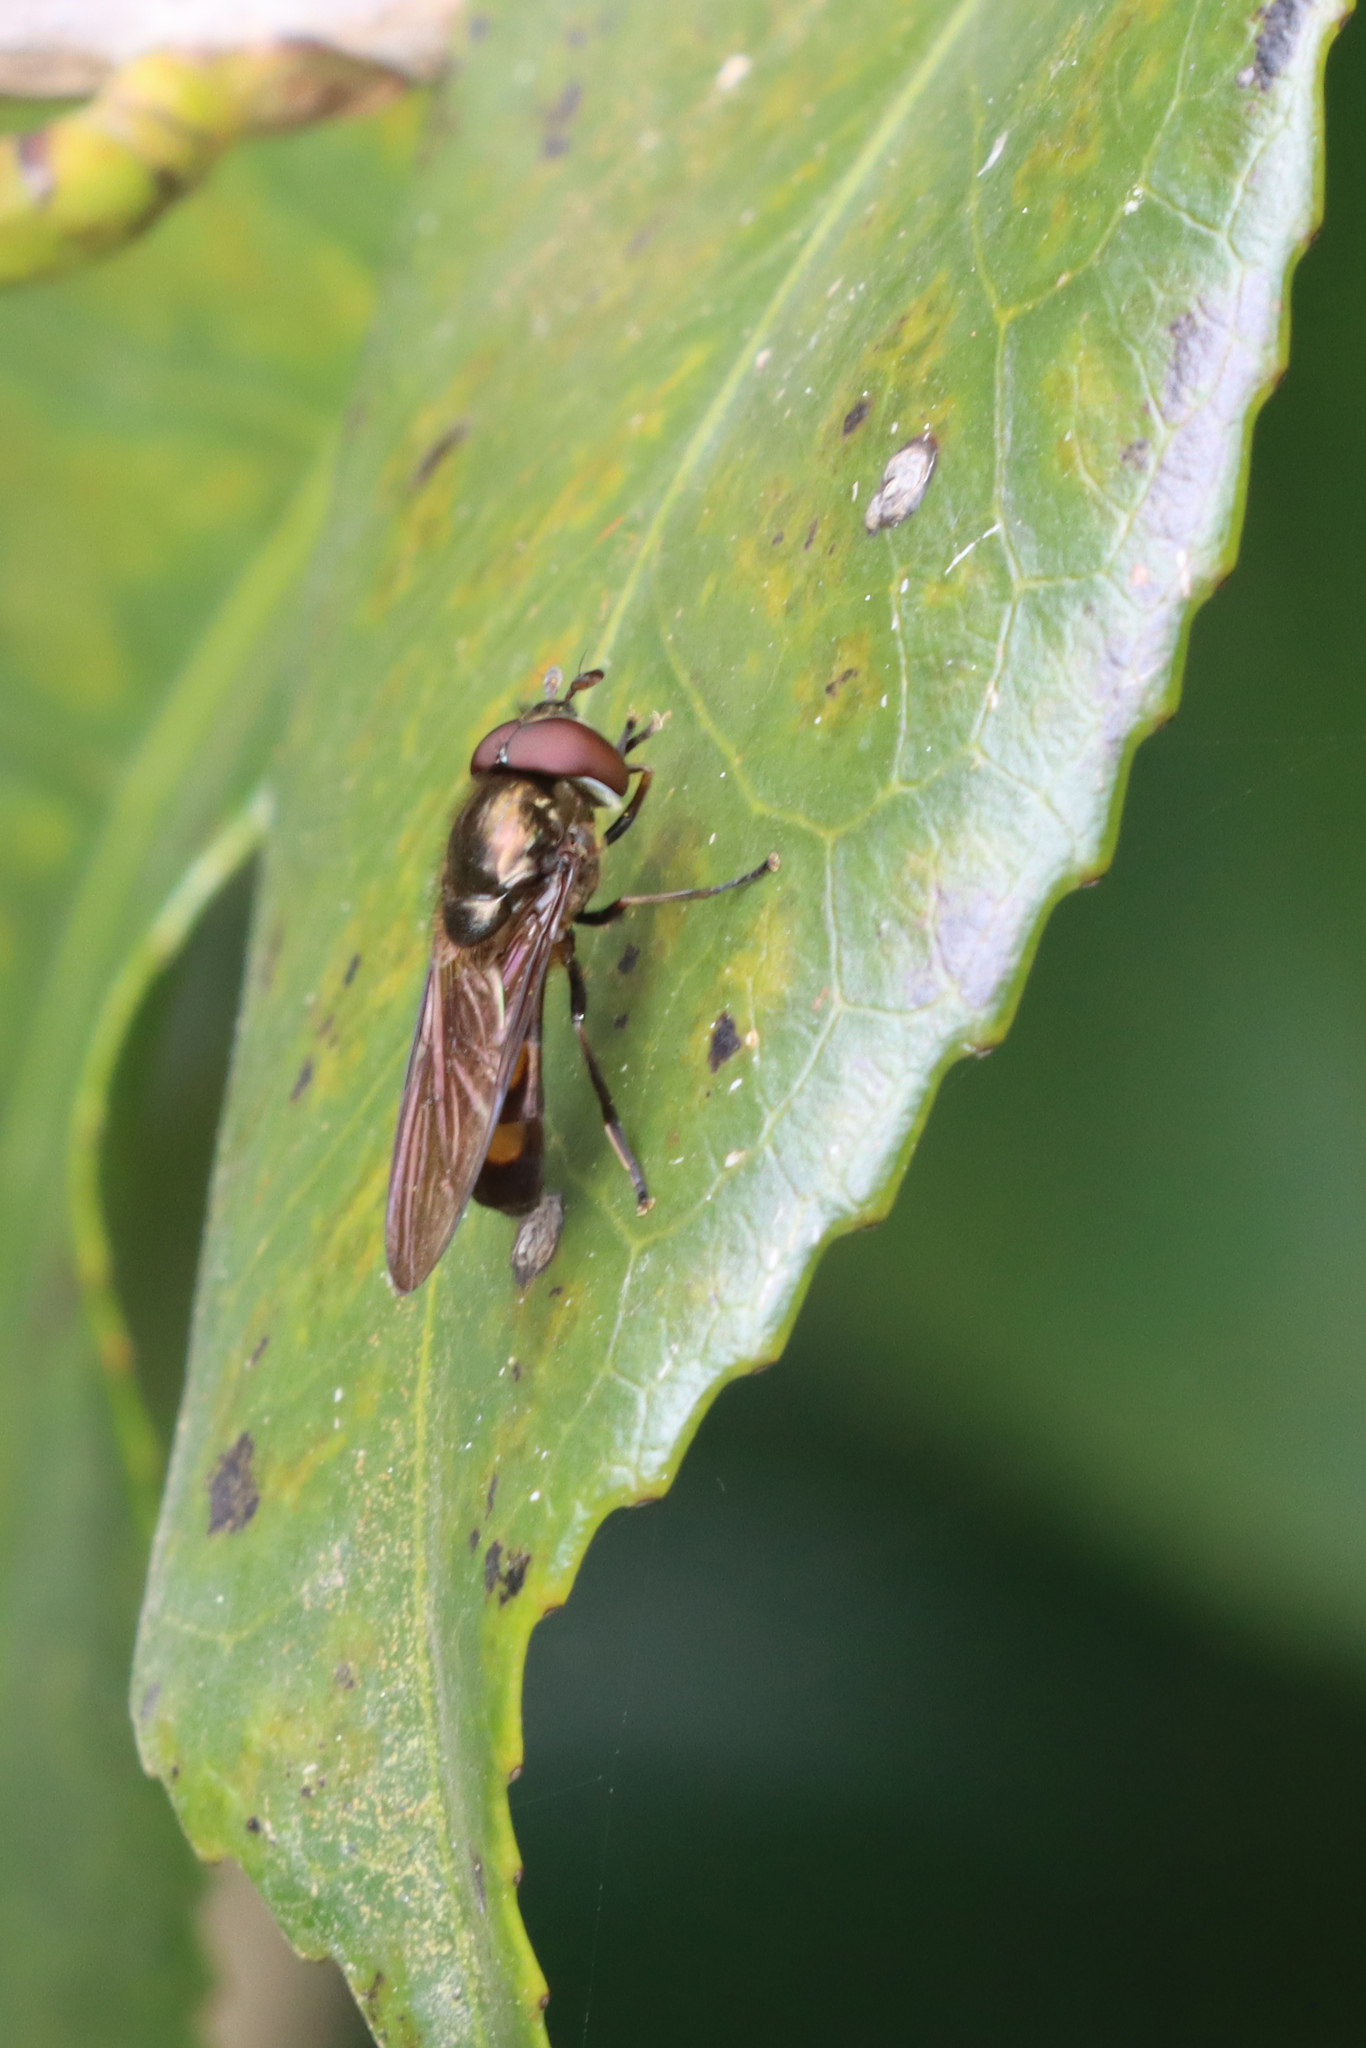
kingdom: Animalia
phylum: Arthropoda
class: Insecta
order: Diptera
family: Syrphidae
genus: Xanthandrus
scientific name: Xanthandrus babyssa
